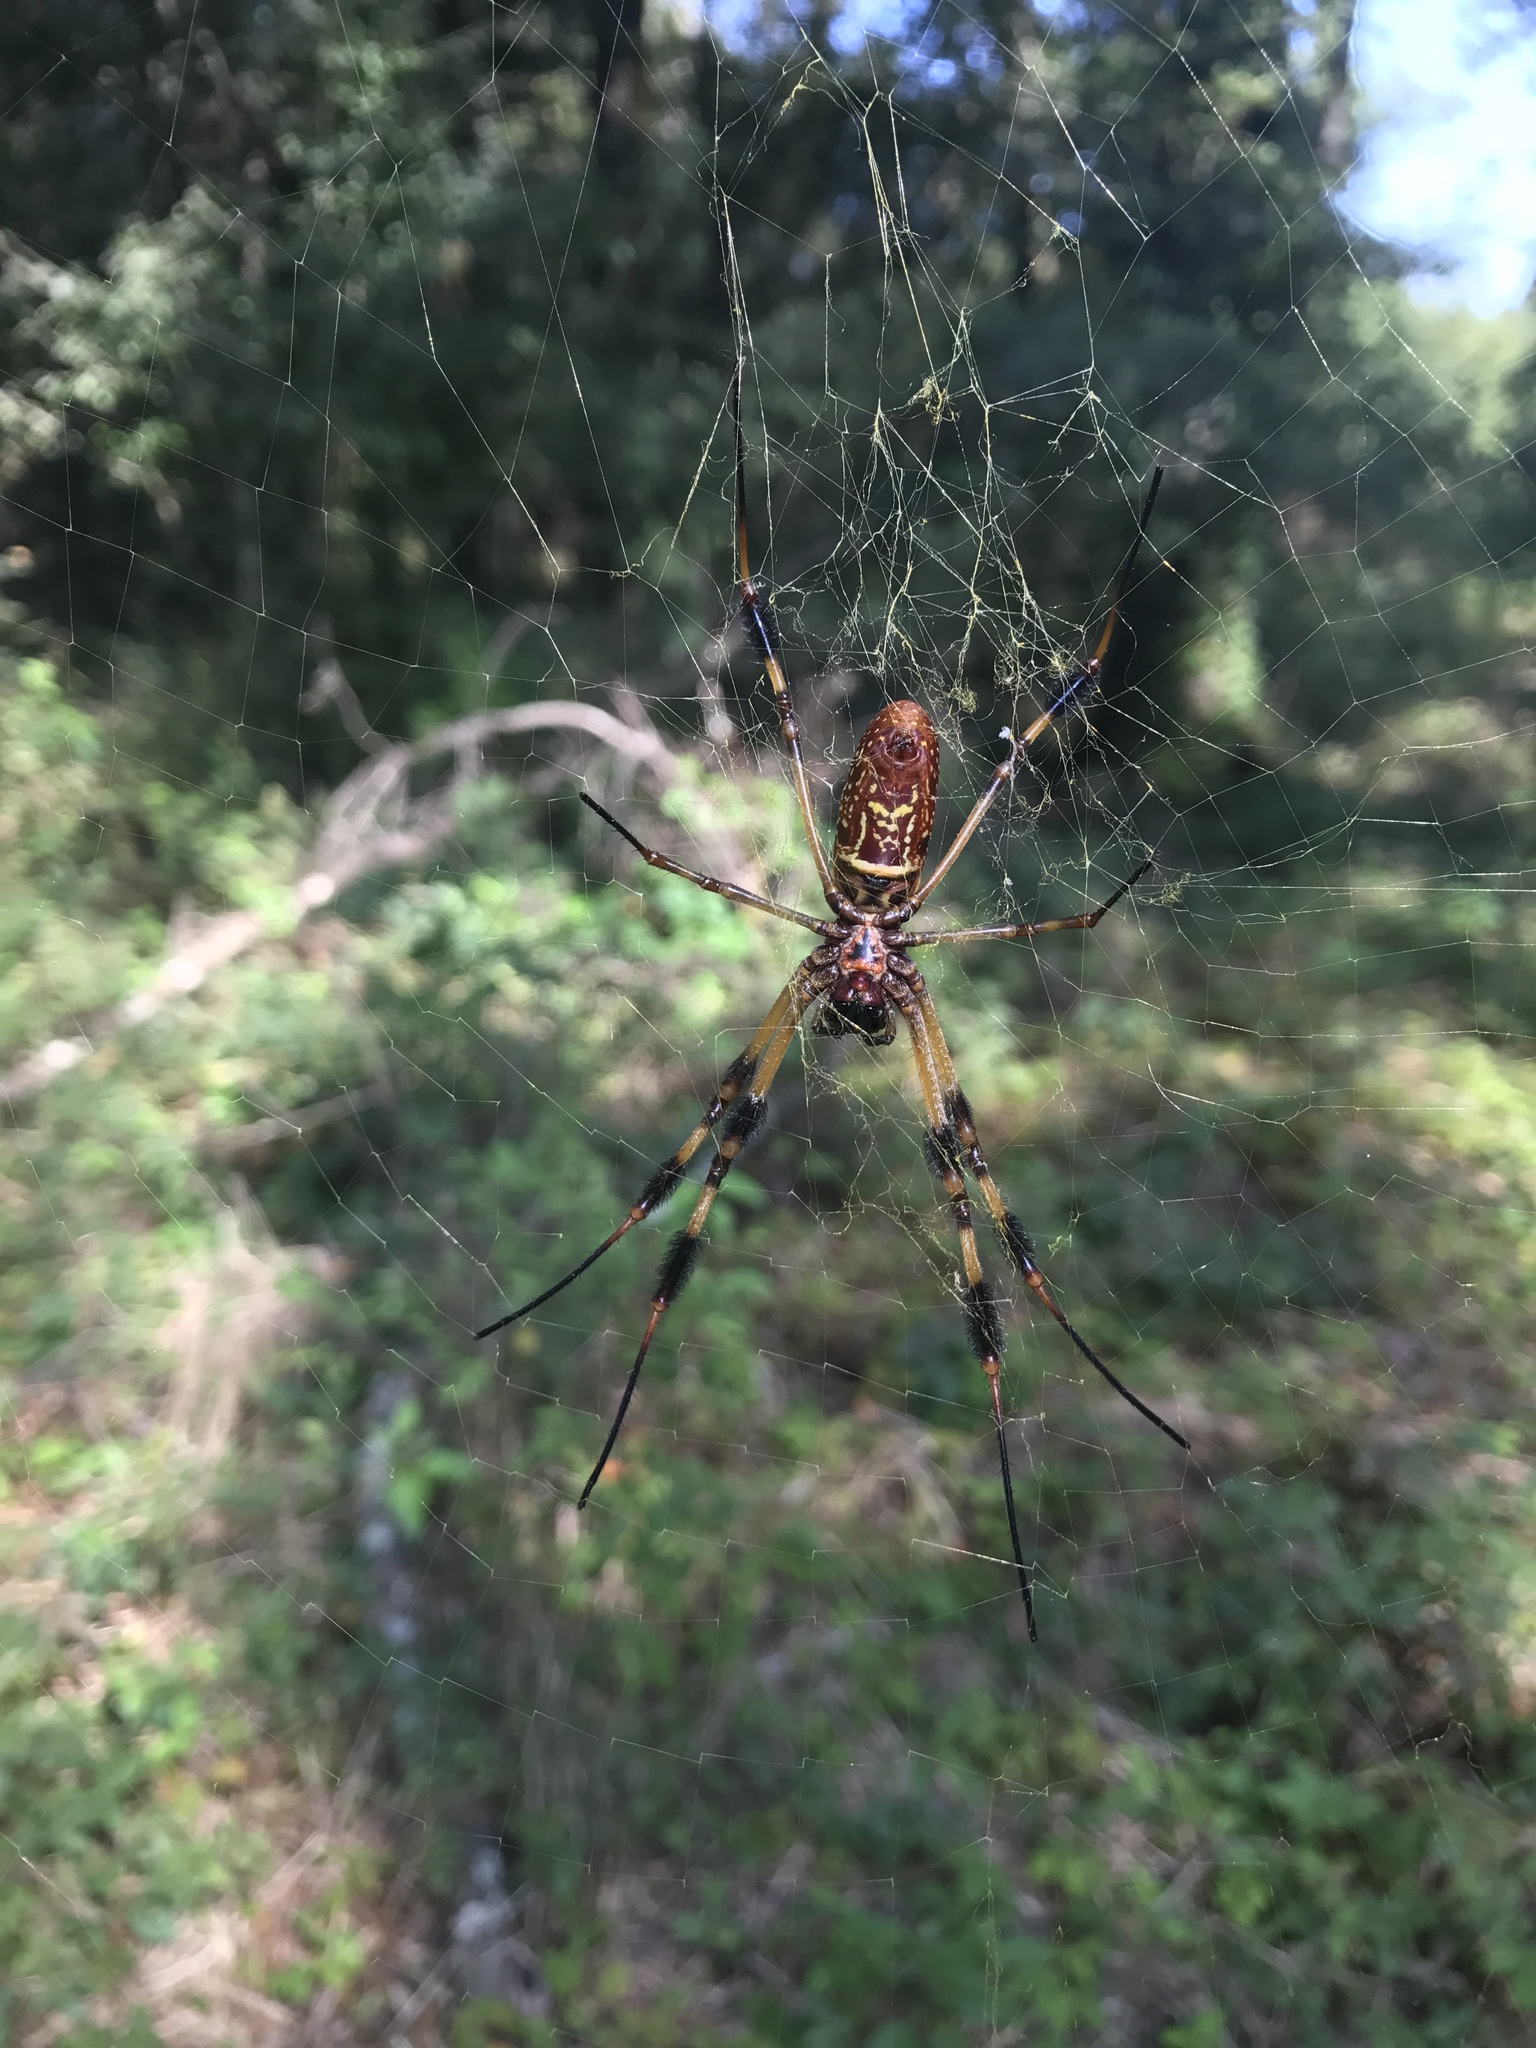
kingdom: Animalia
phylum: Arthropoda
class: Arachnida
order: Araneae
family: Araneidae
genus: Trichonephila
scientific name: Trichonephila clavipes
